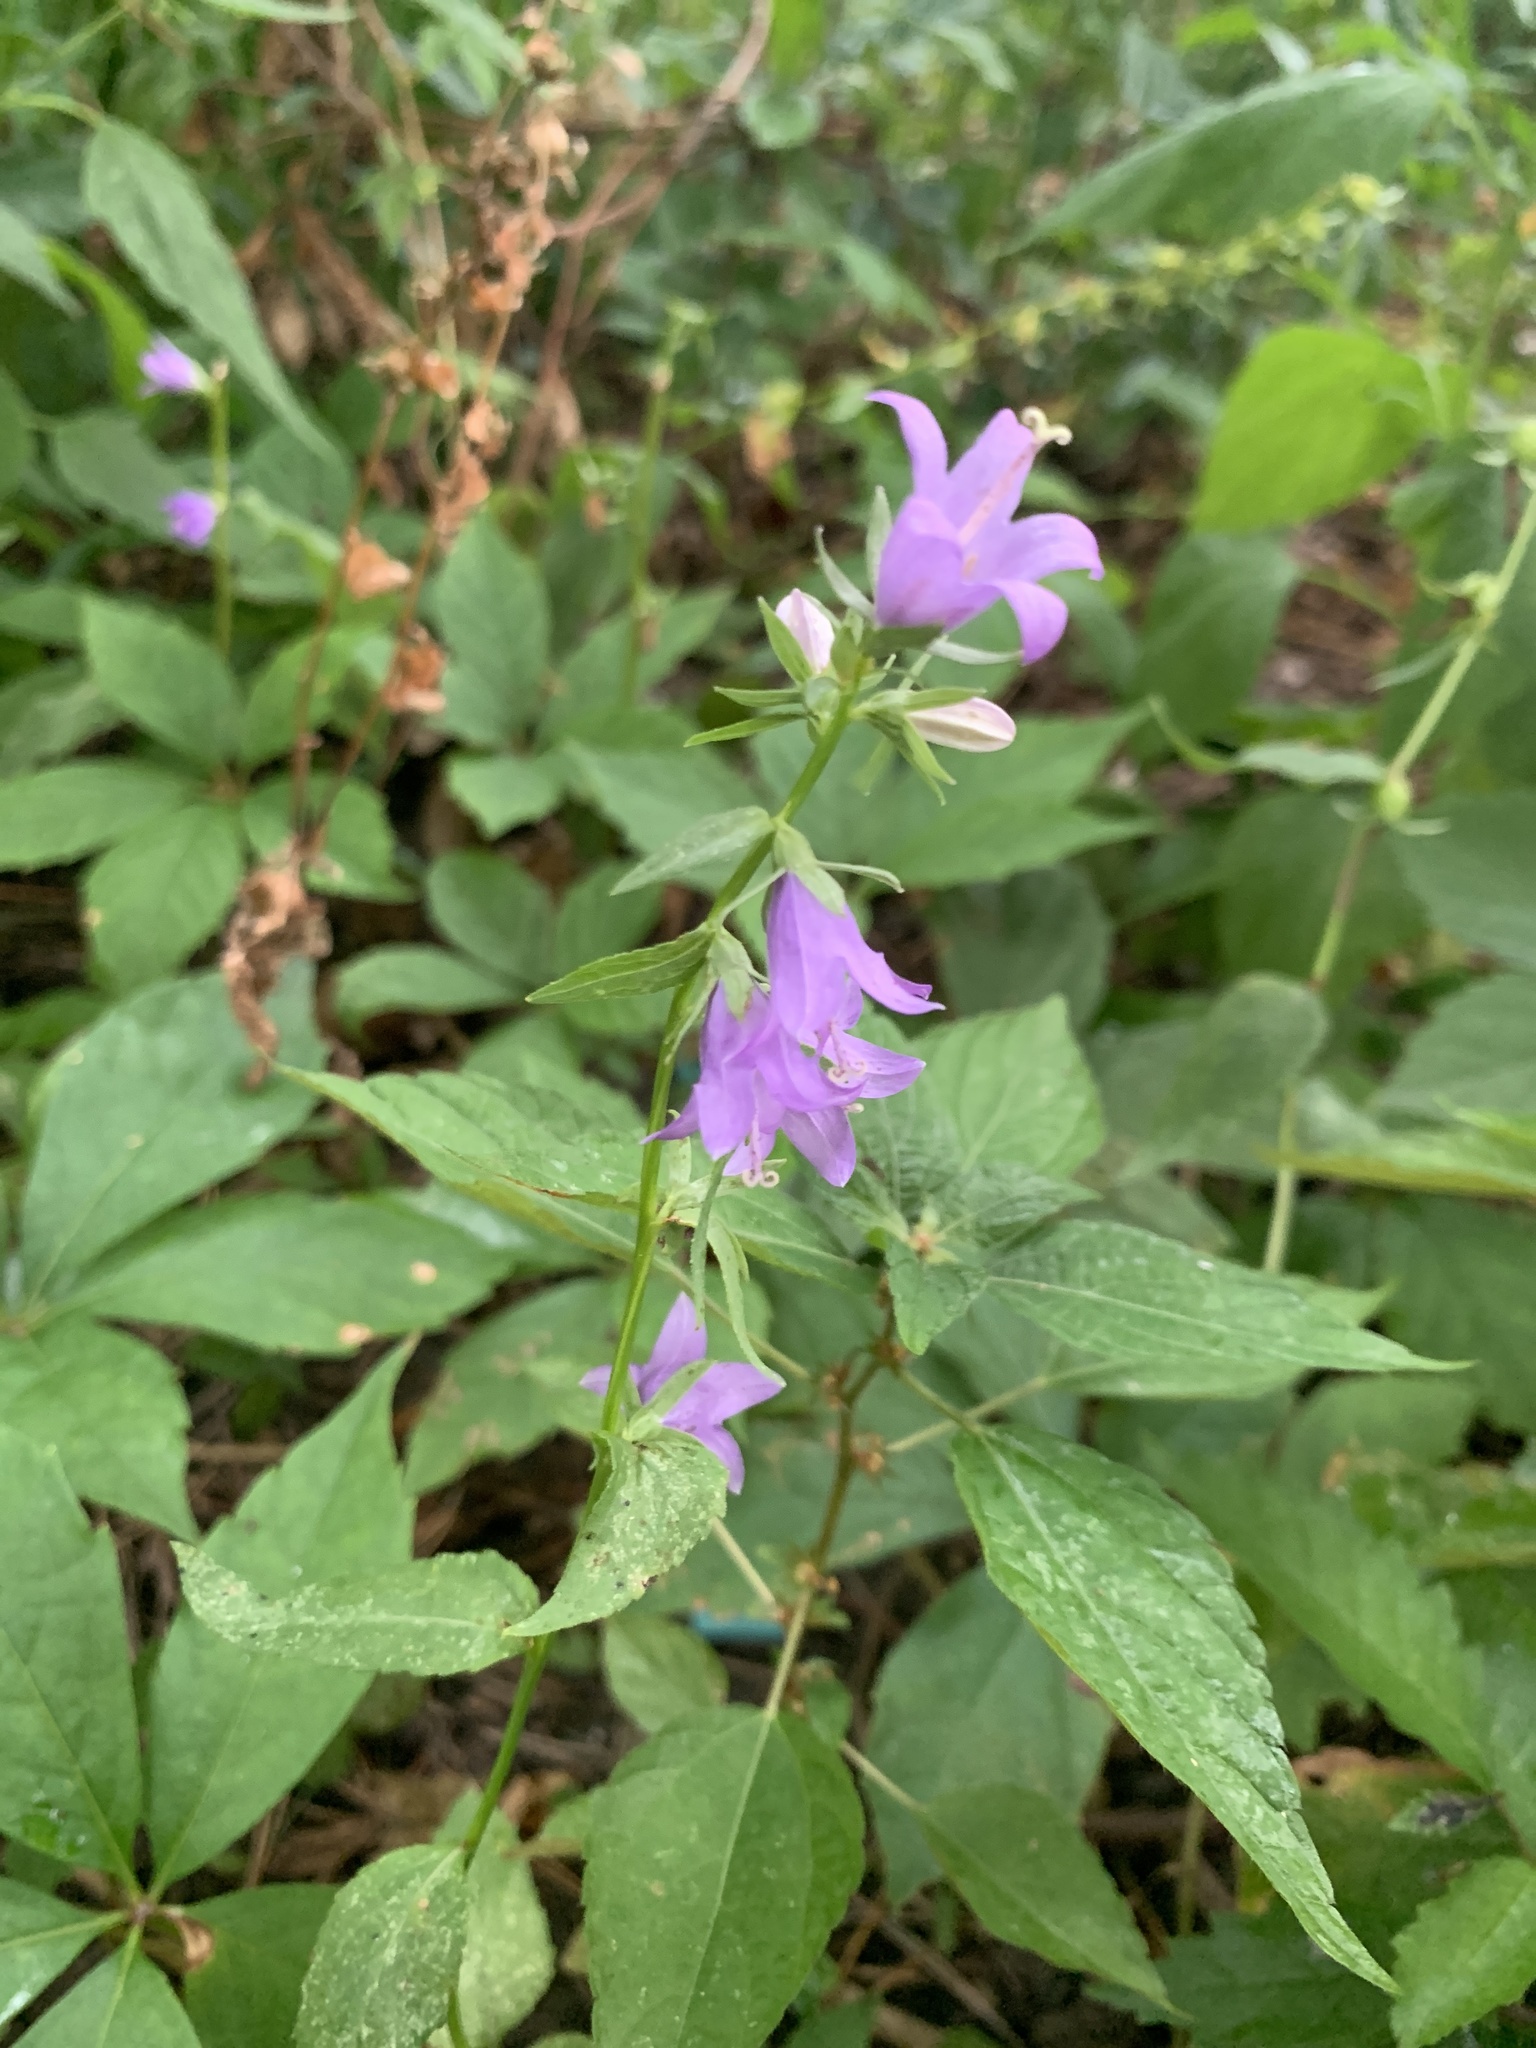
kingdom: Plantae
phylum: Tracheophyta
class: Magnoliopsida
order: Asterales
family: Campanulaceae
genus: Campanula
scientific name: Campanula rapunculoides
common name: Creeping bellflower
